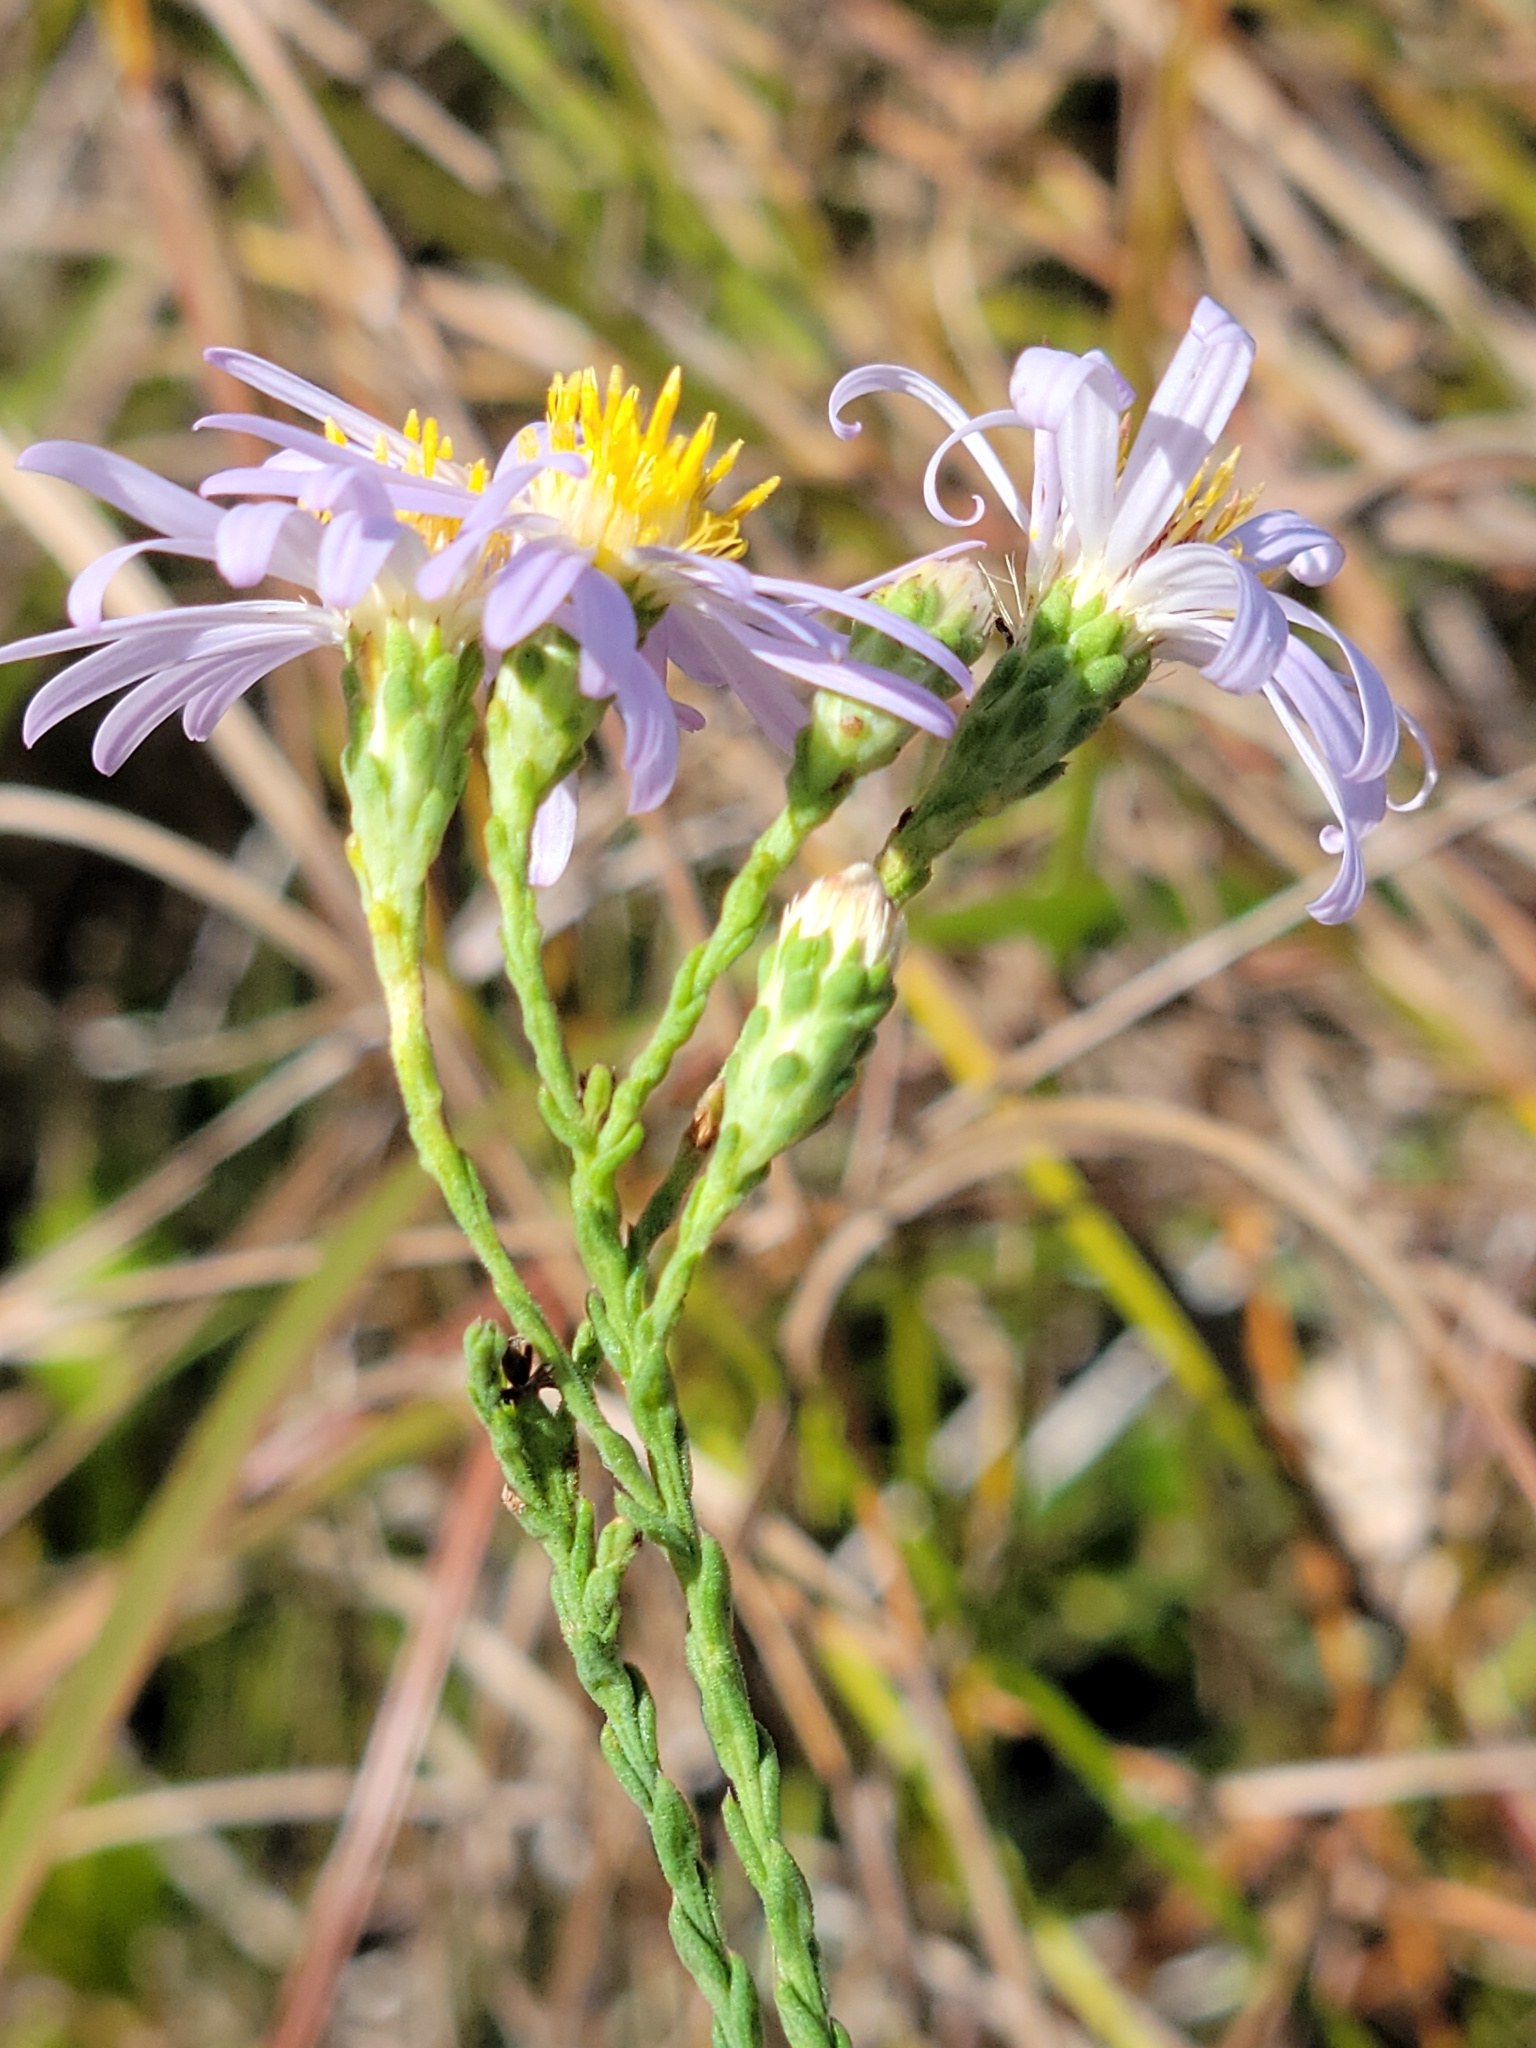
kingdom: Plantae
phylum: Tracheophyta
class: Magnoliopsida
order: Asterales
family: Asteraceae
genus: Symphyotrichum
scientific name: Symphyotrichum adnatum
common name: Scale-leaf aster
